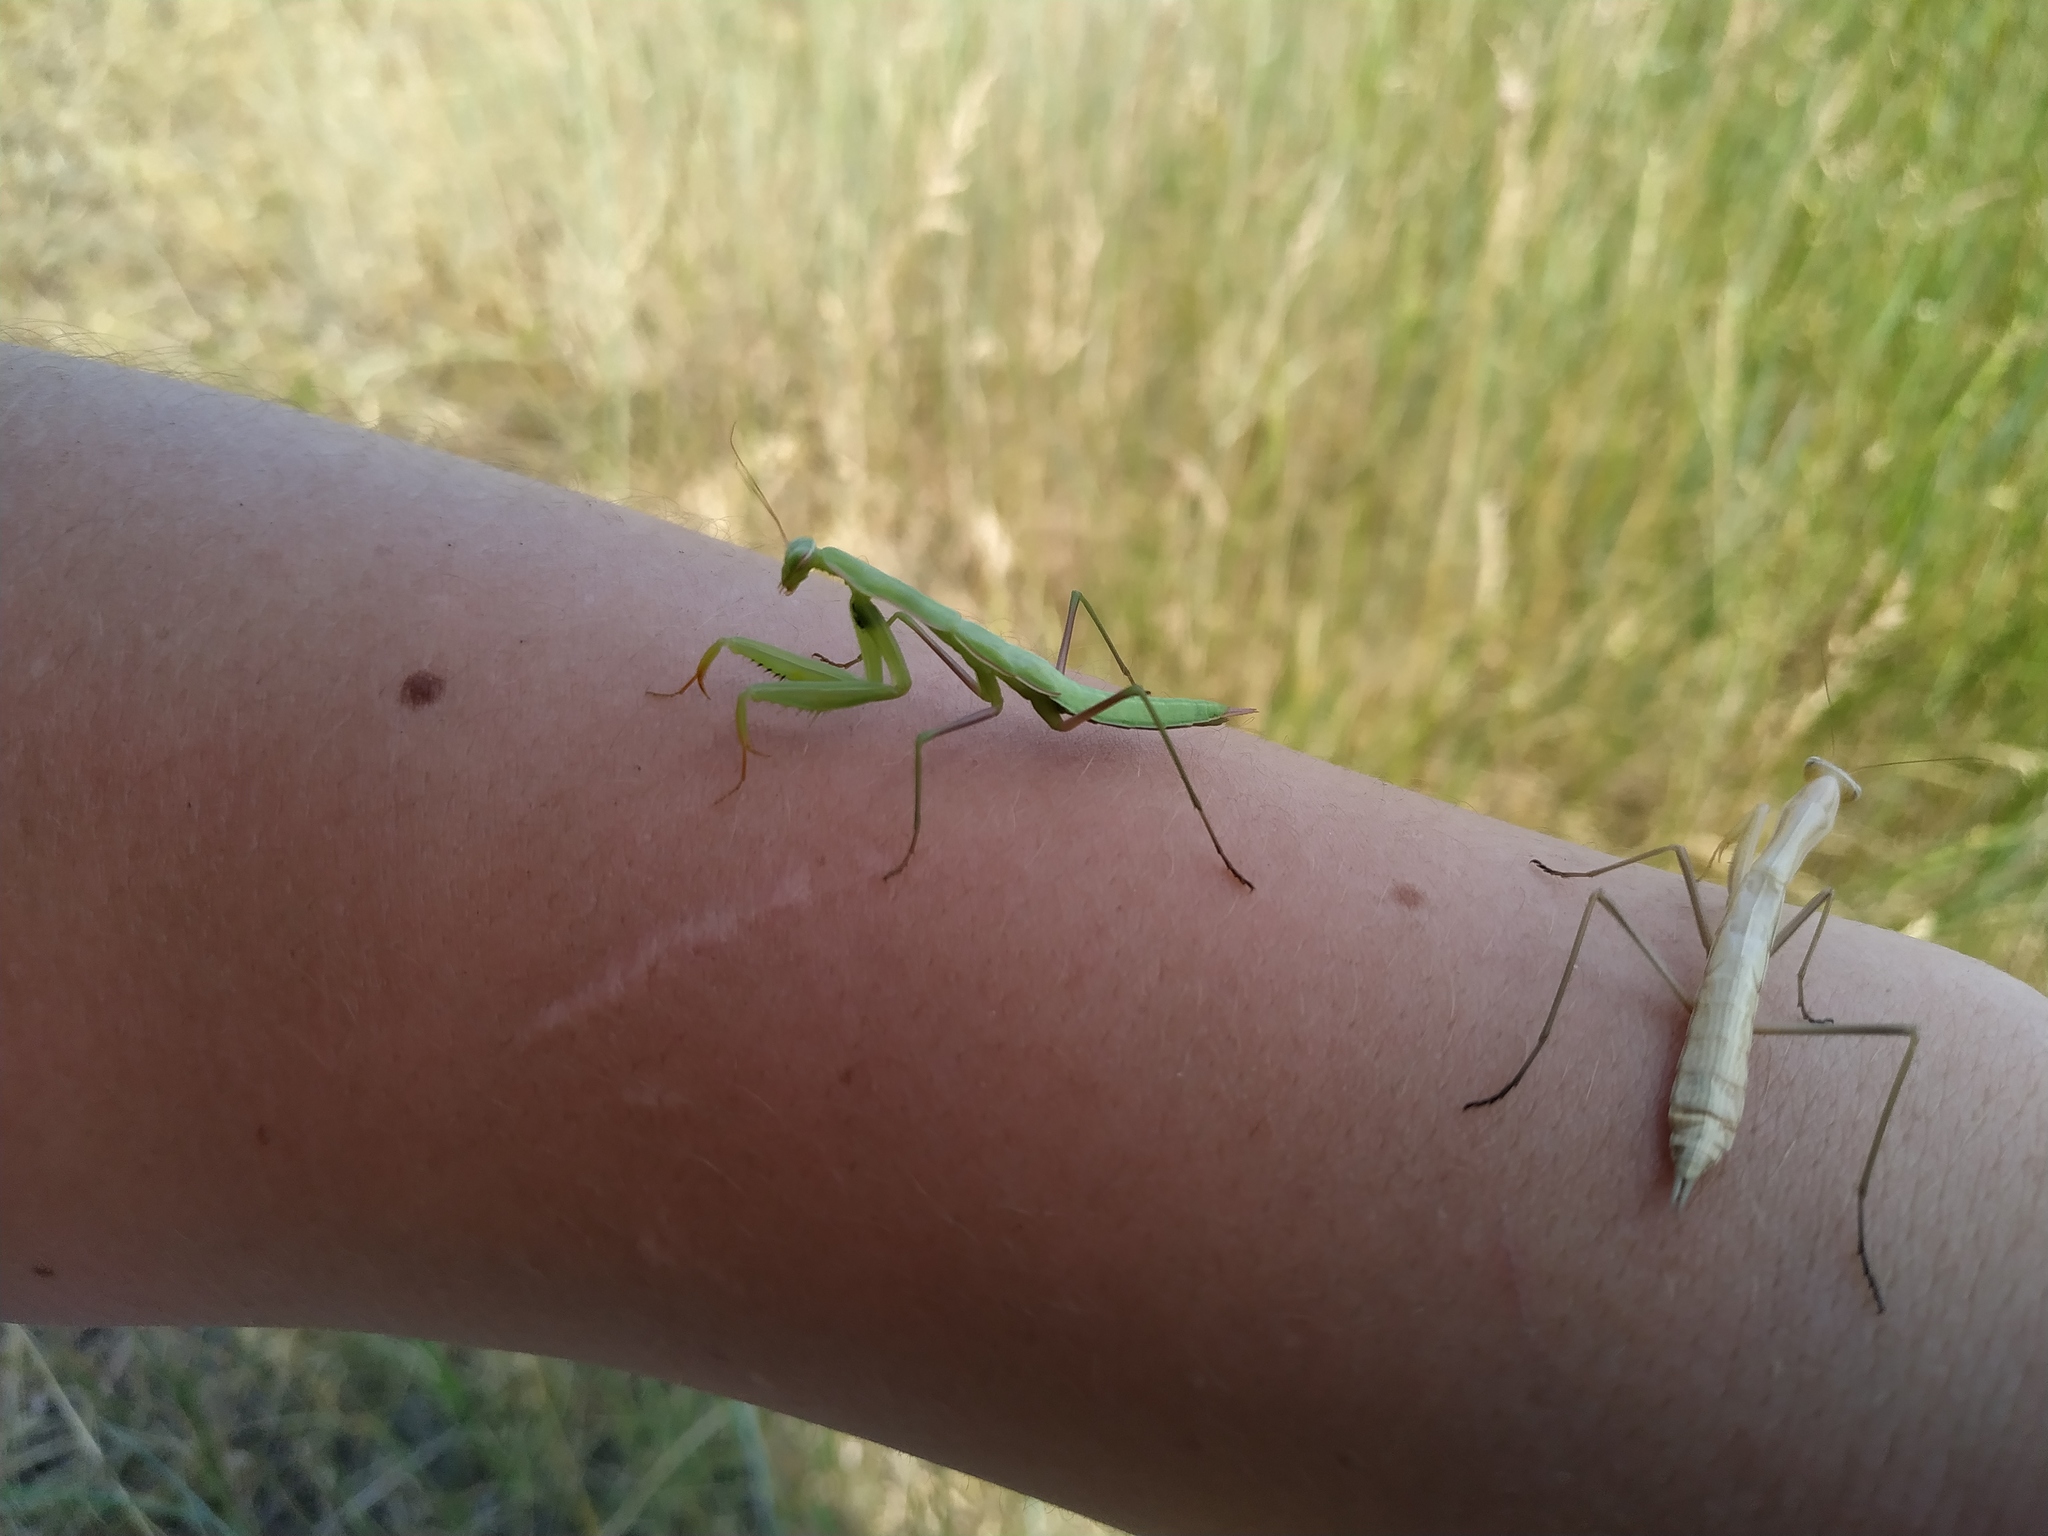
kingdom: Animalia
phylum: Arthropoda
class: Insecta
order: Mantodea
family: Mantidae
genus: Mantis
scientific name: Mantis religiosa
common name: Praying mantis
